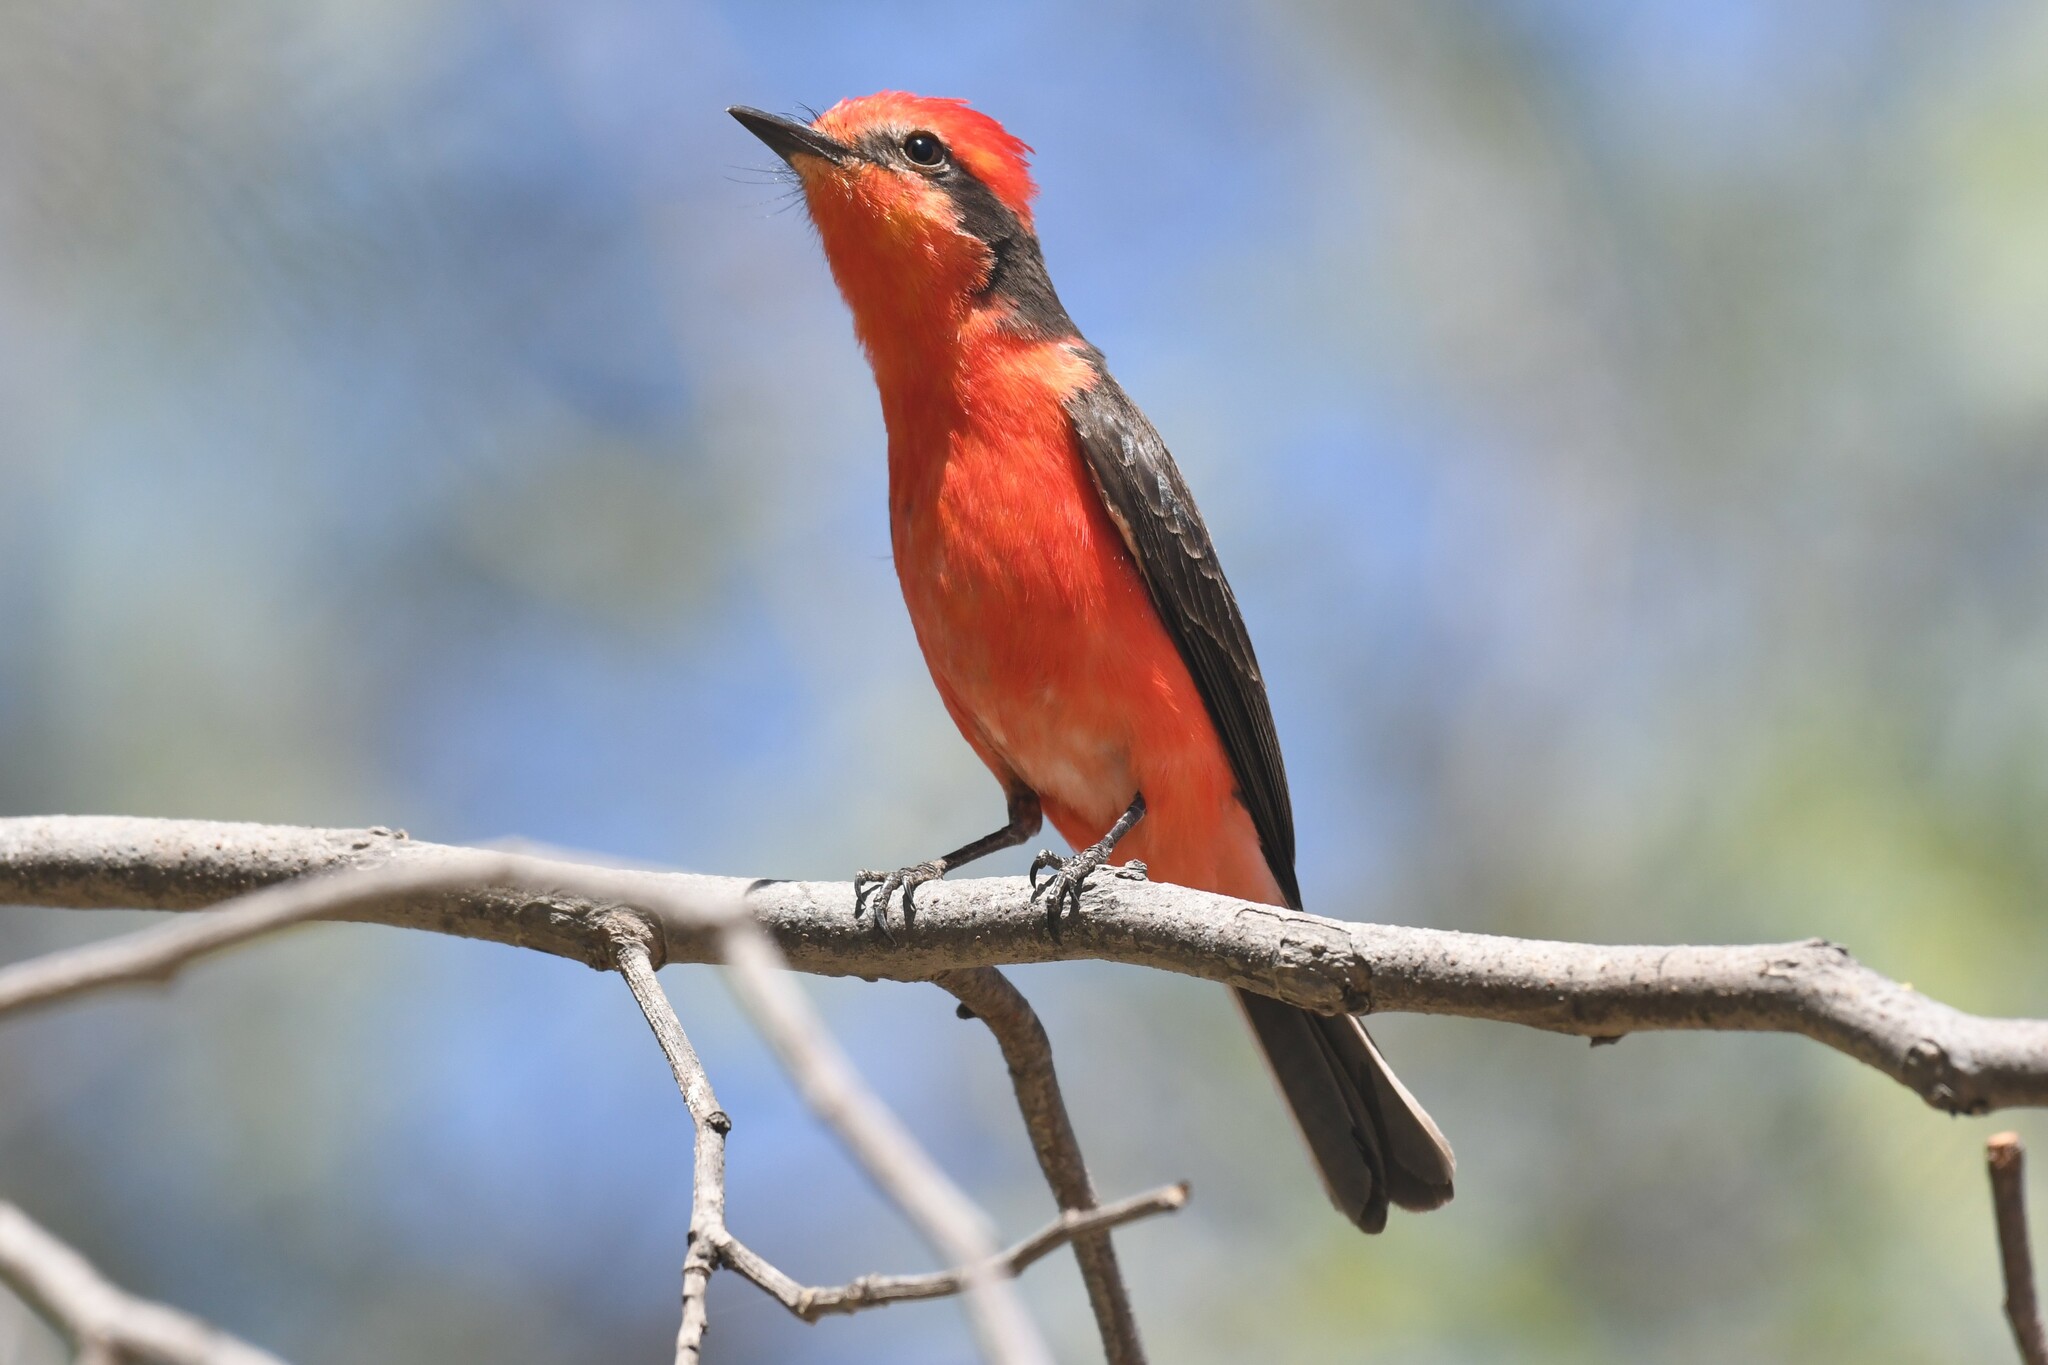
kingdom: Animalia
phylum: Chordata
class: Aves
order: Passeriformes
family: Tyrannidae
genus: Pyrocephalus
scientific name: Pyrocephalus rubinus
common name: Vermilion flycatcher
